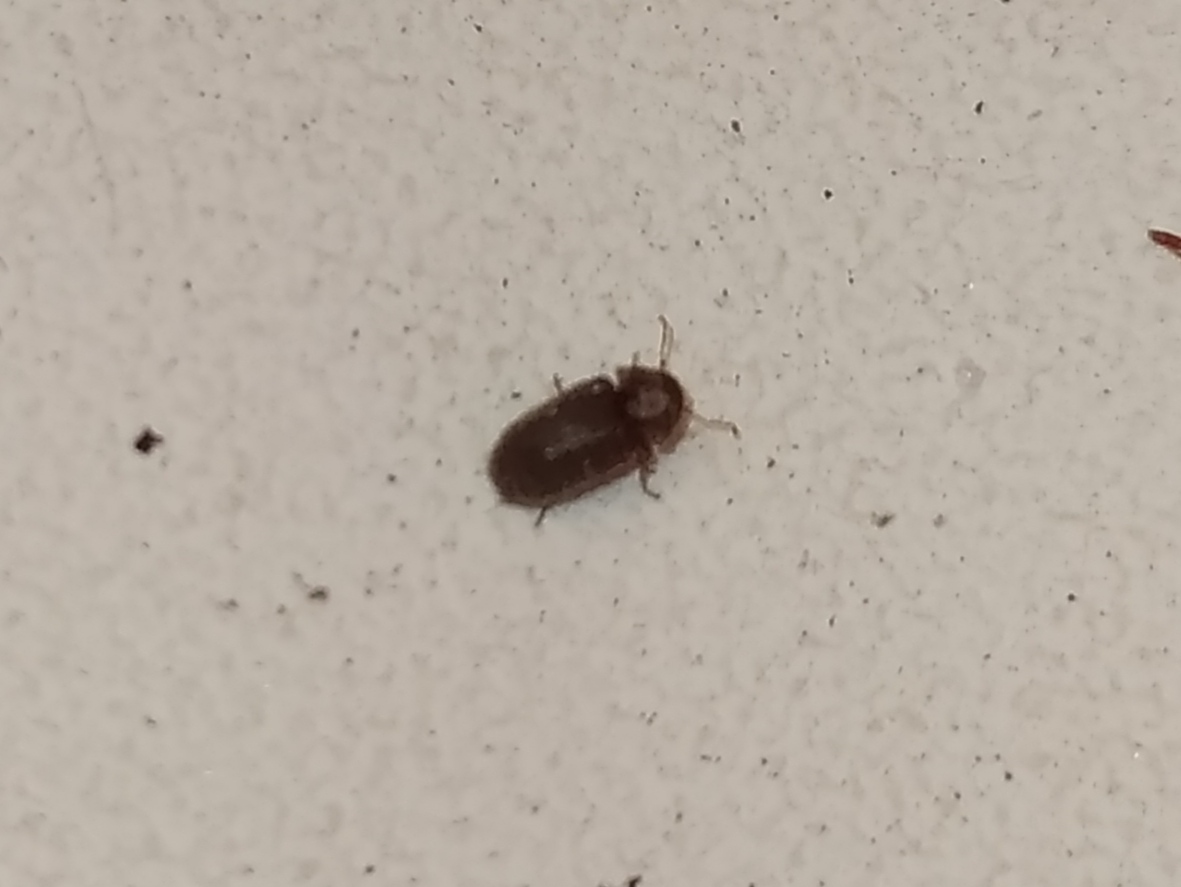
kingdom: Animalia
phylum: Arthropoda
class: Insecta
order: Coleoptera
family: Anobiidae
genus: Stegobium
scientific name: Stegobium paniceum
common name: Drugstore beetle
